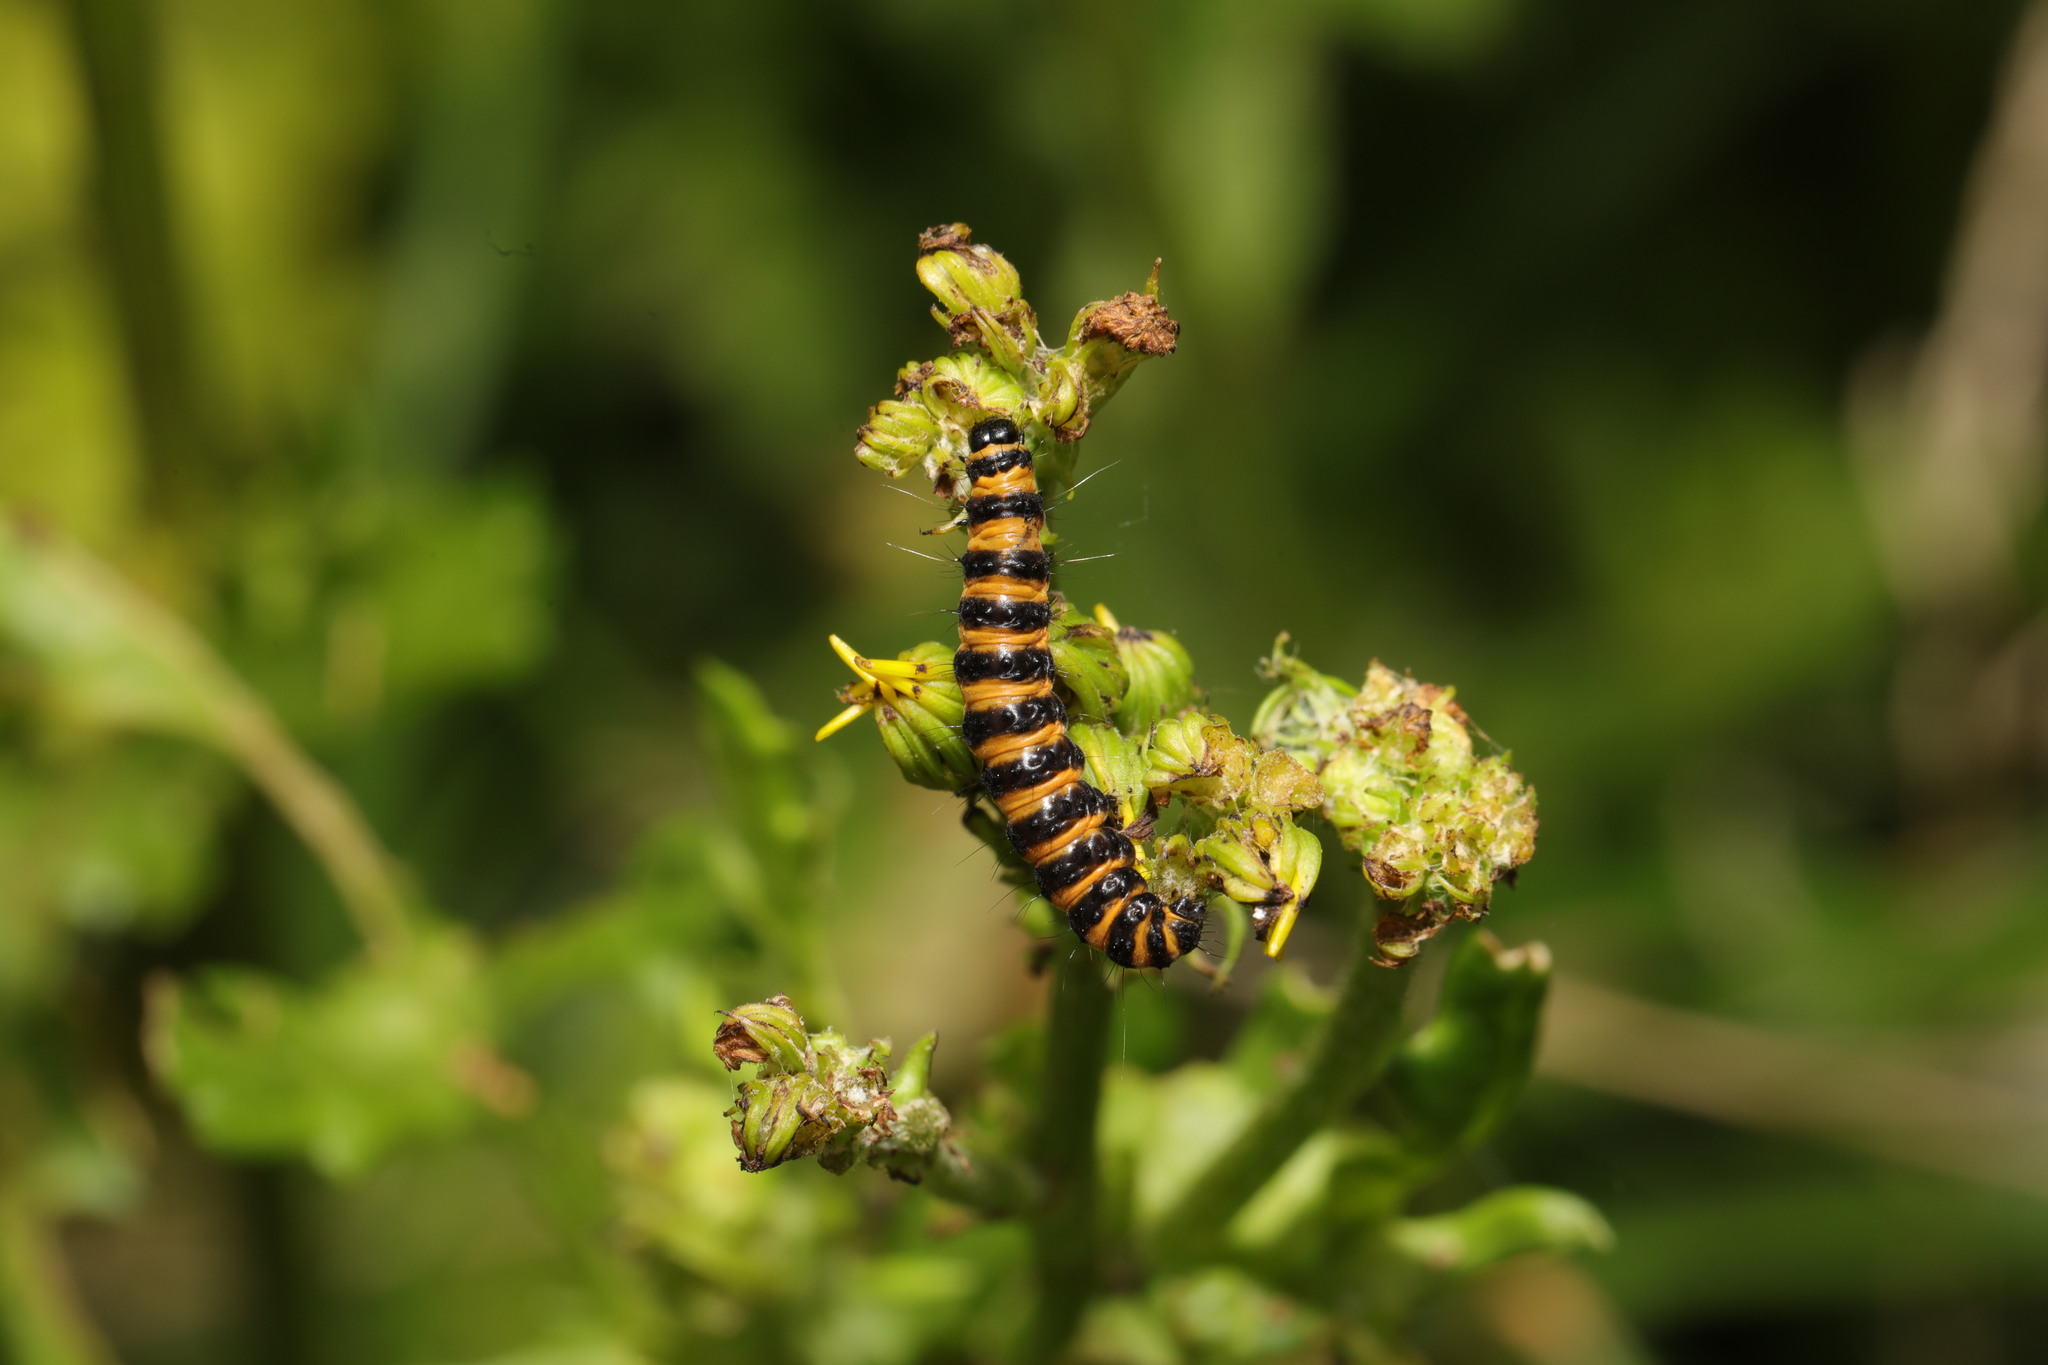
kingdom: Animalia
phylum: Arthropoda
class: Insecta
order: Lepidoptera
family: Erebidae
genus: Tyria
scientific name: Tyria jacobaeae
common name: Cinnabar
